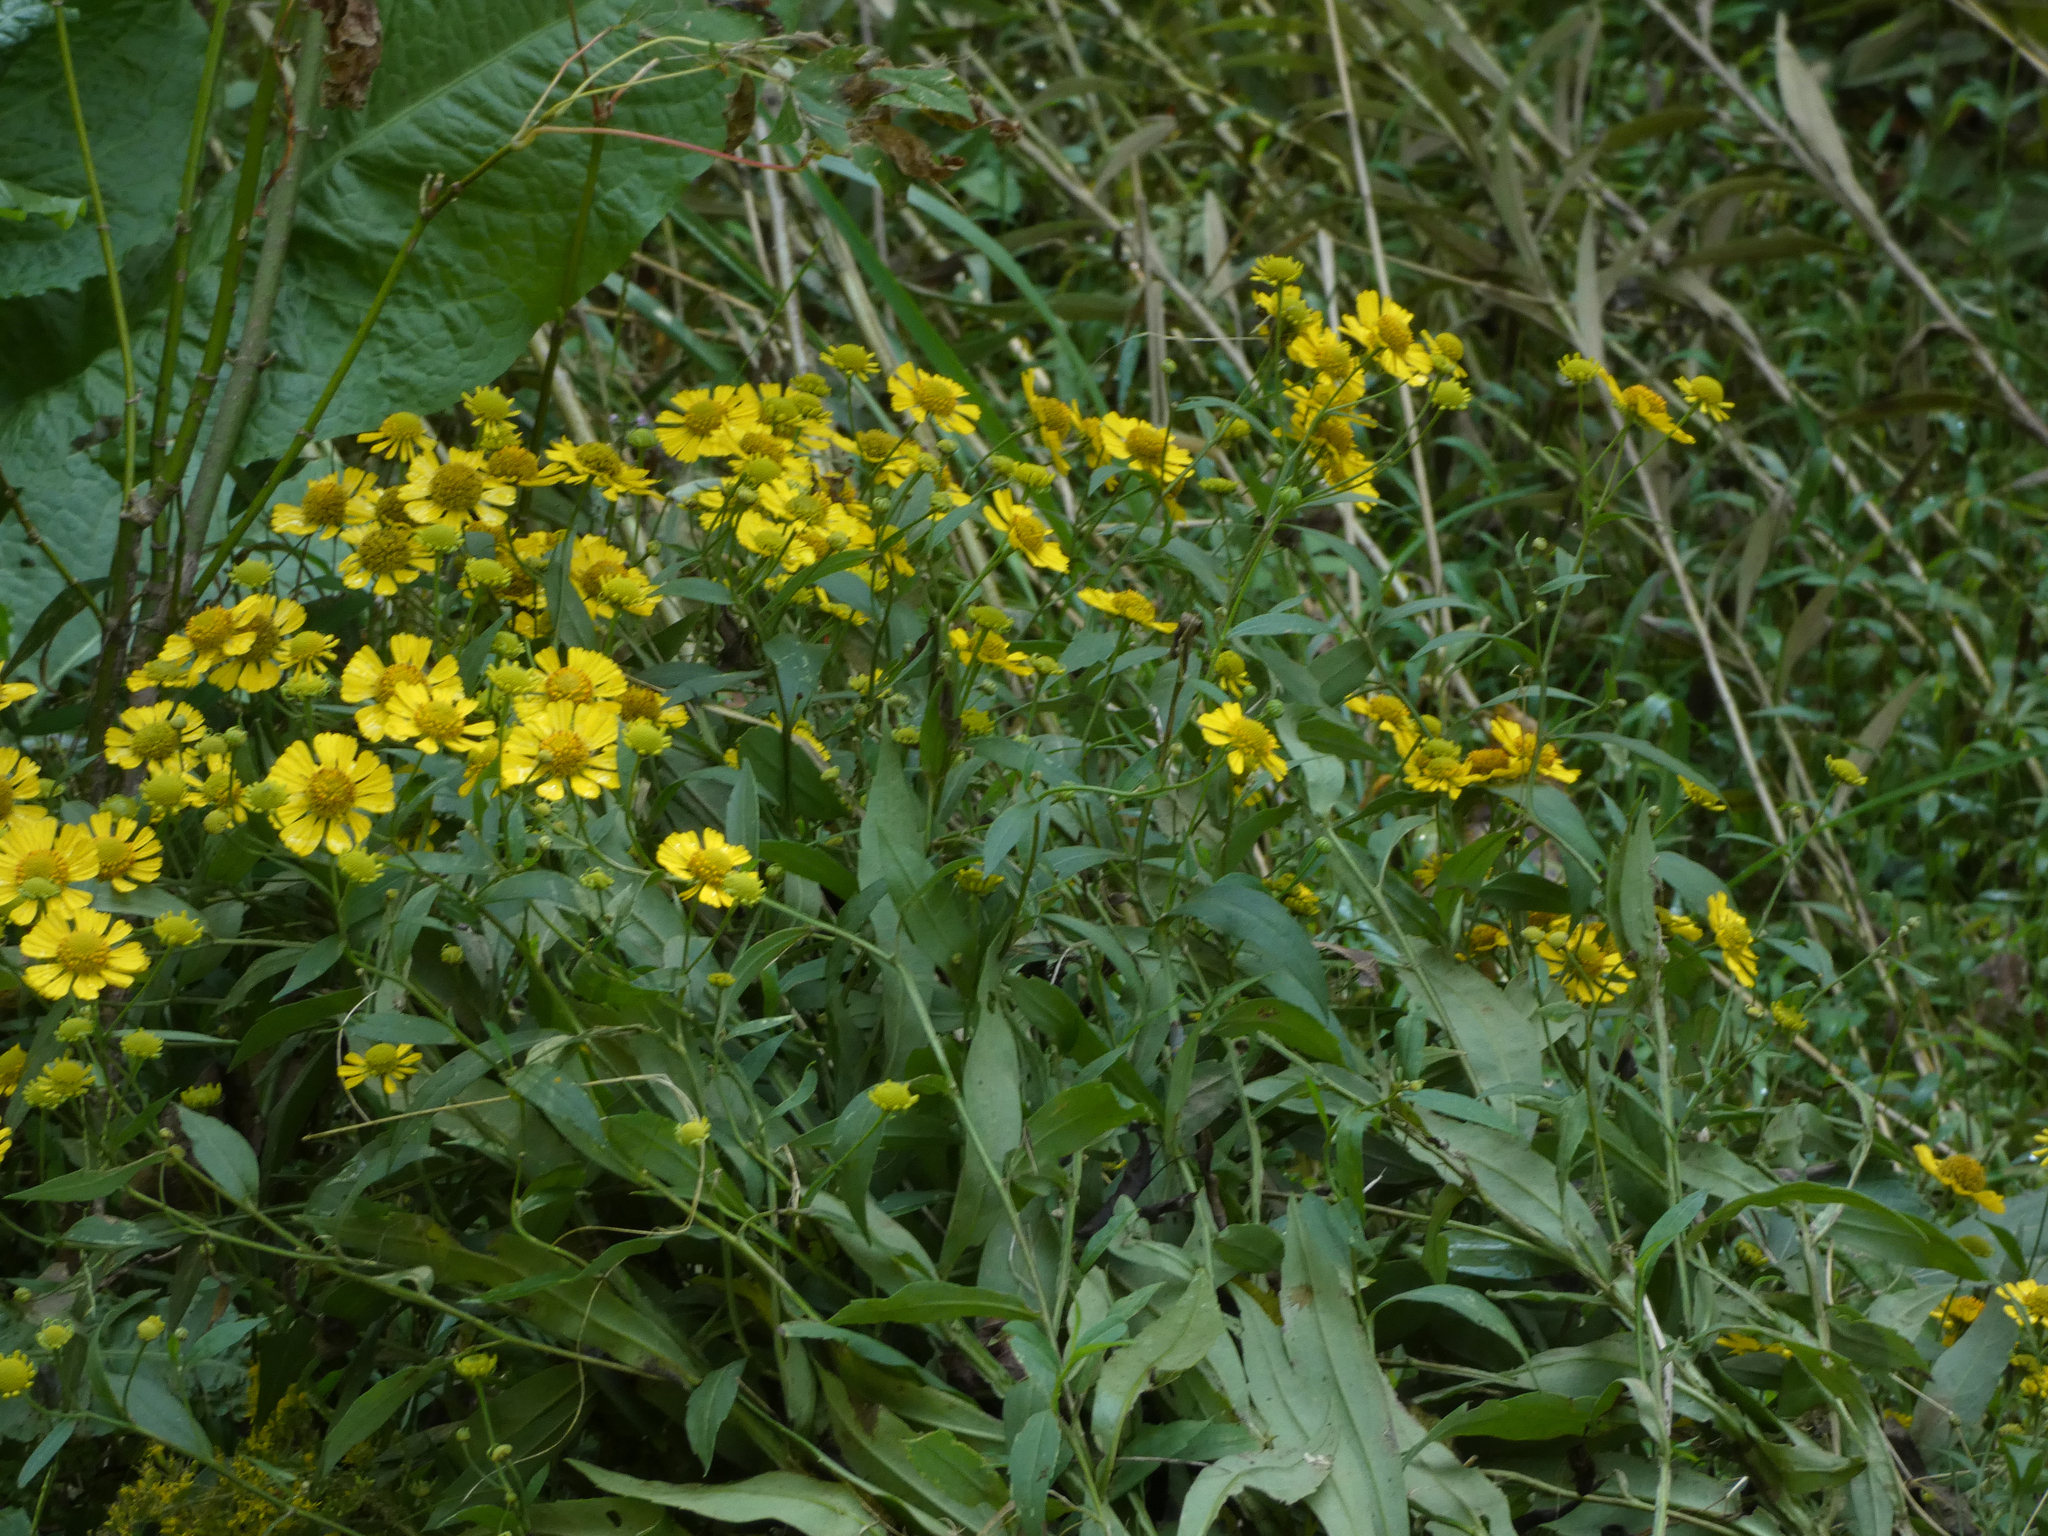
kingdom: Plantae
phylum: Tracheophyta
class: Magnoliopsida
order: Asterales
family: Asteraceae
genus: Helenium
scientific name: Helenium autumnale
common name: Sneezeweed
